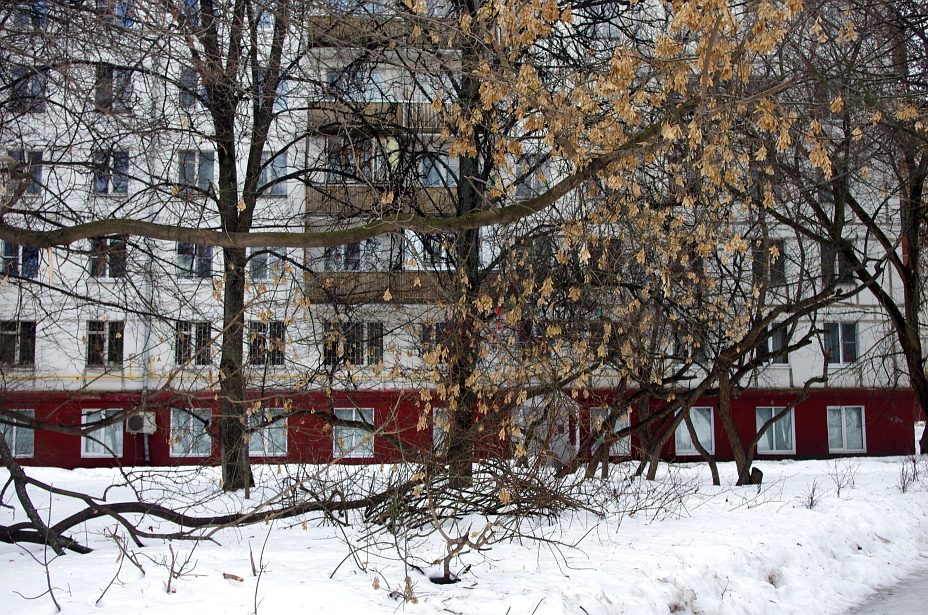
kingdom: Plantae
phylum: Tracheophyta
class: Magnoliopsida
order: Sapindales
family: Sapindaceae
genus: Acer
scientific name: Acer negundo
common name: Ashleaf maple
